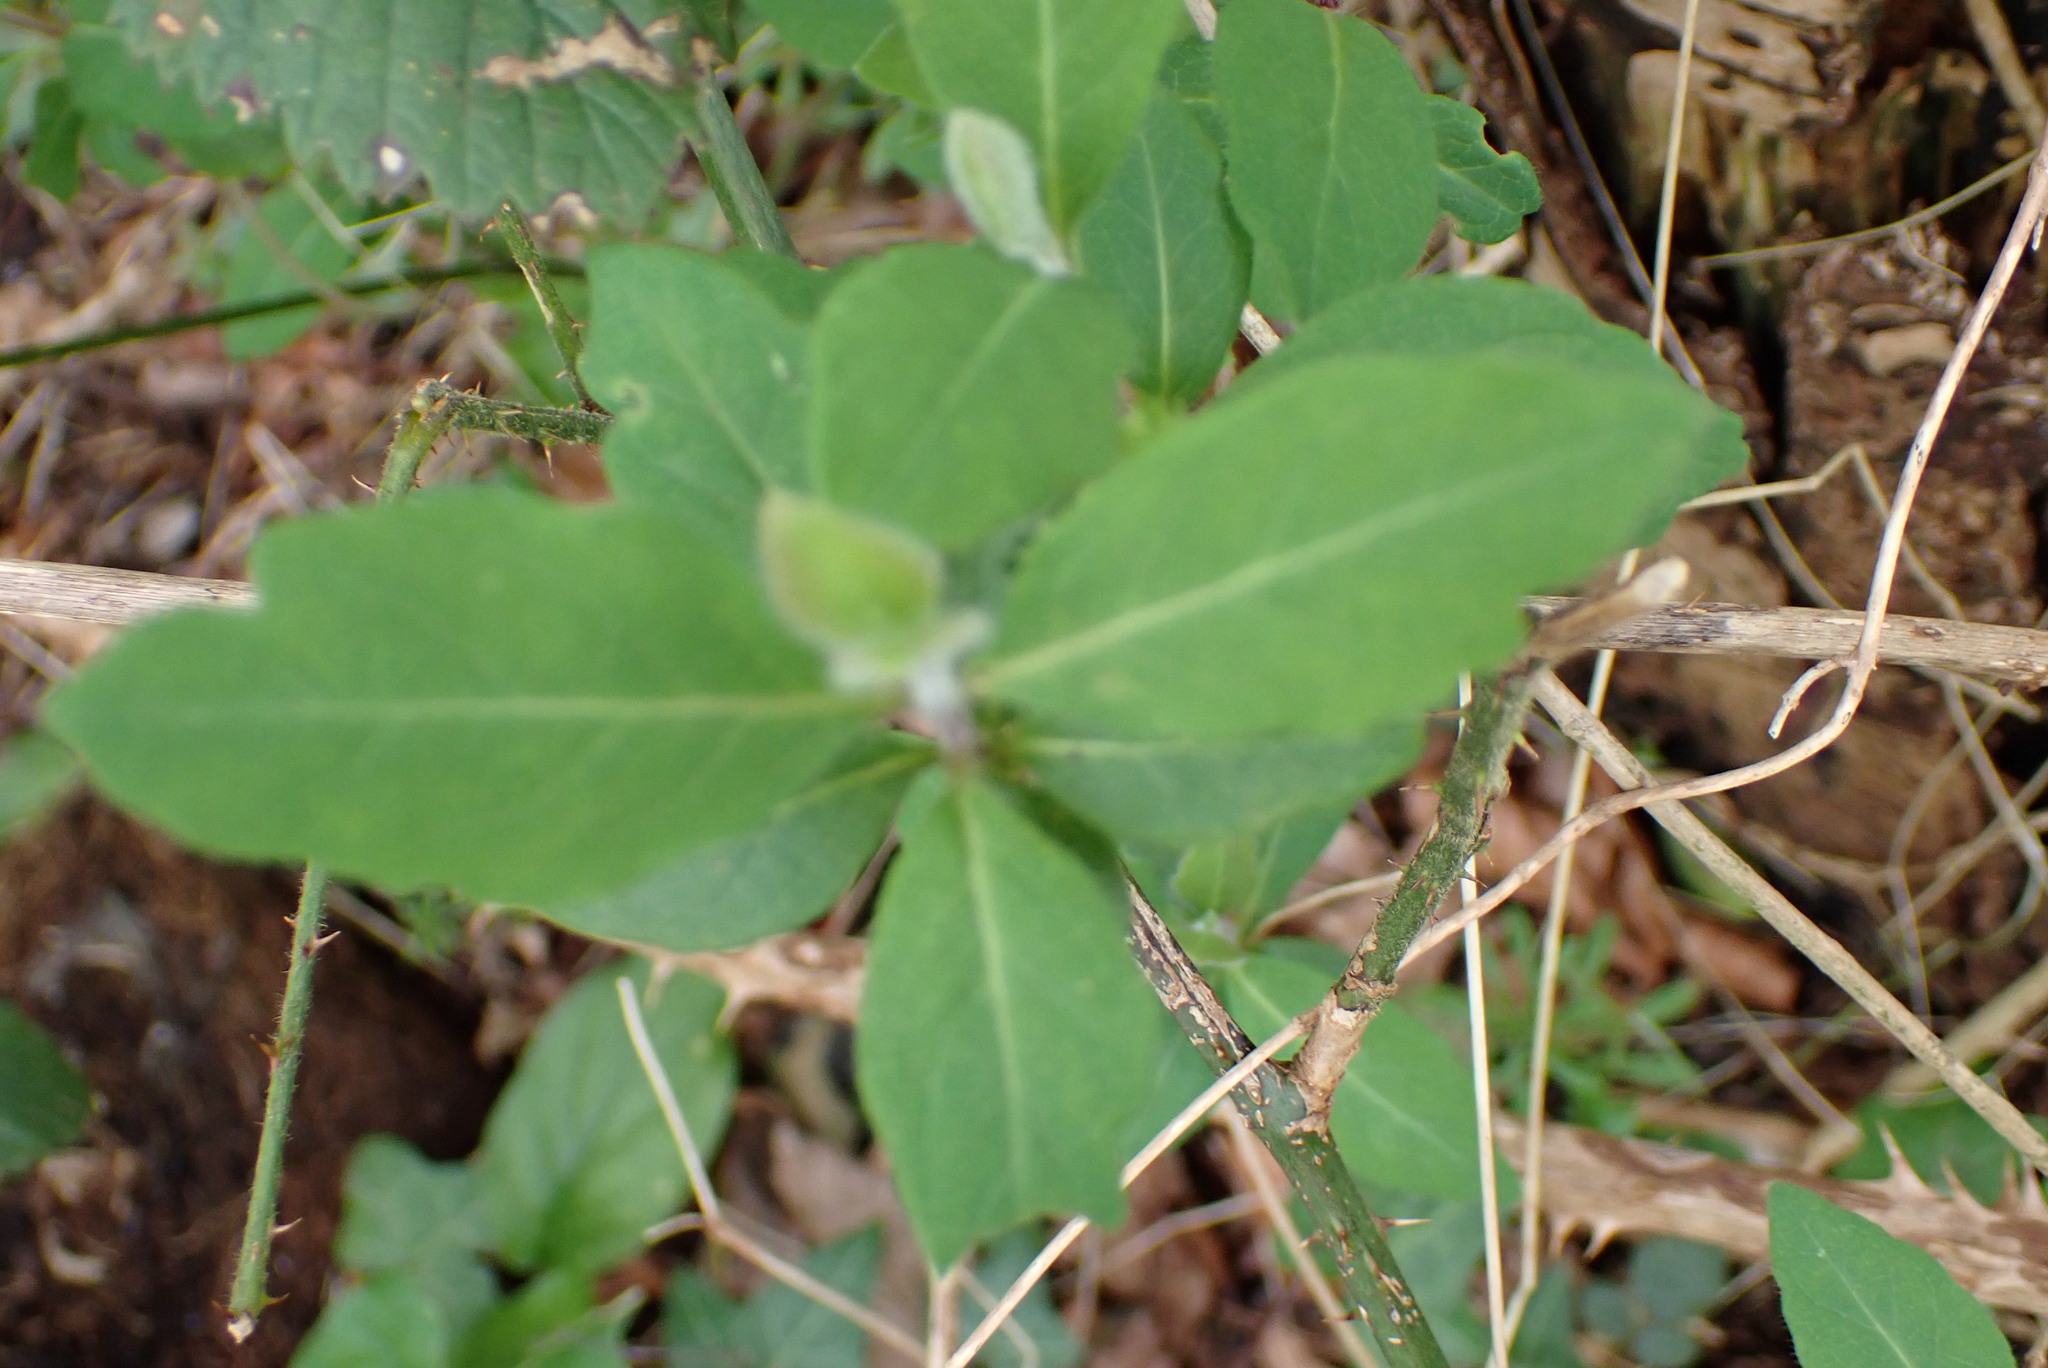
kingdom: Plantae
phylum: Tracheophyta
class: Magnoliopsida
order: Dipsacales
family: Caprifoliaceae
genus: Lonicera
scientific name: Lonicera periclymenum
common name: European honeysuckle
